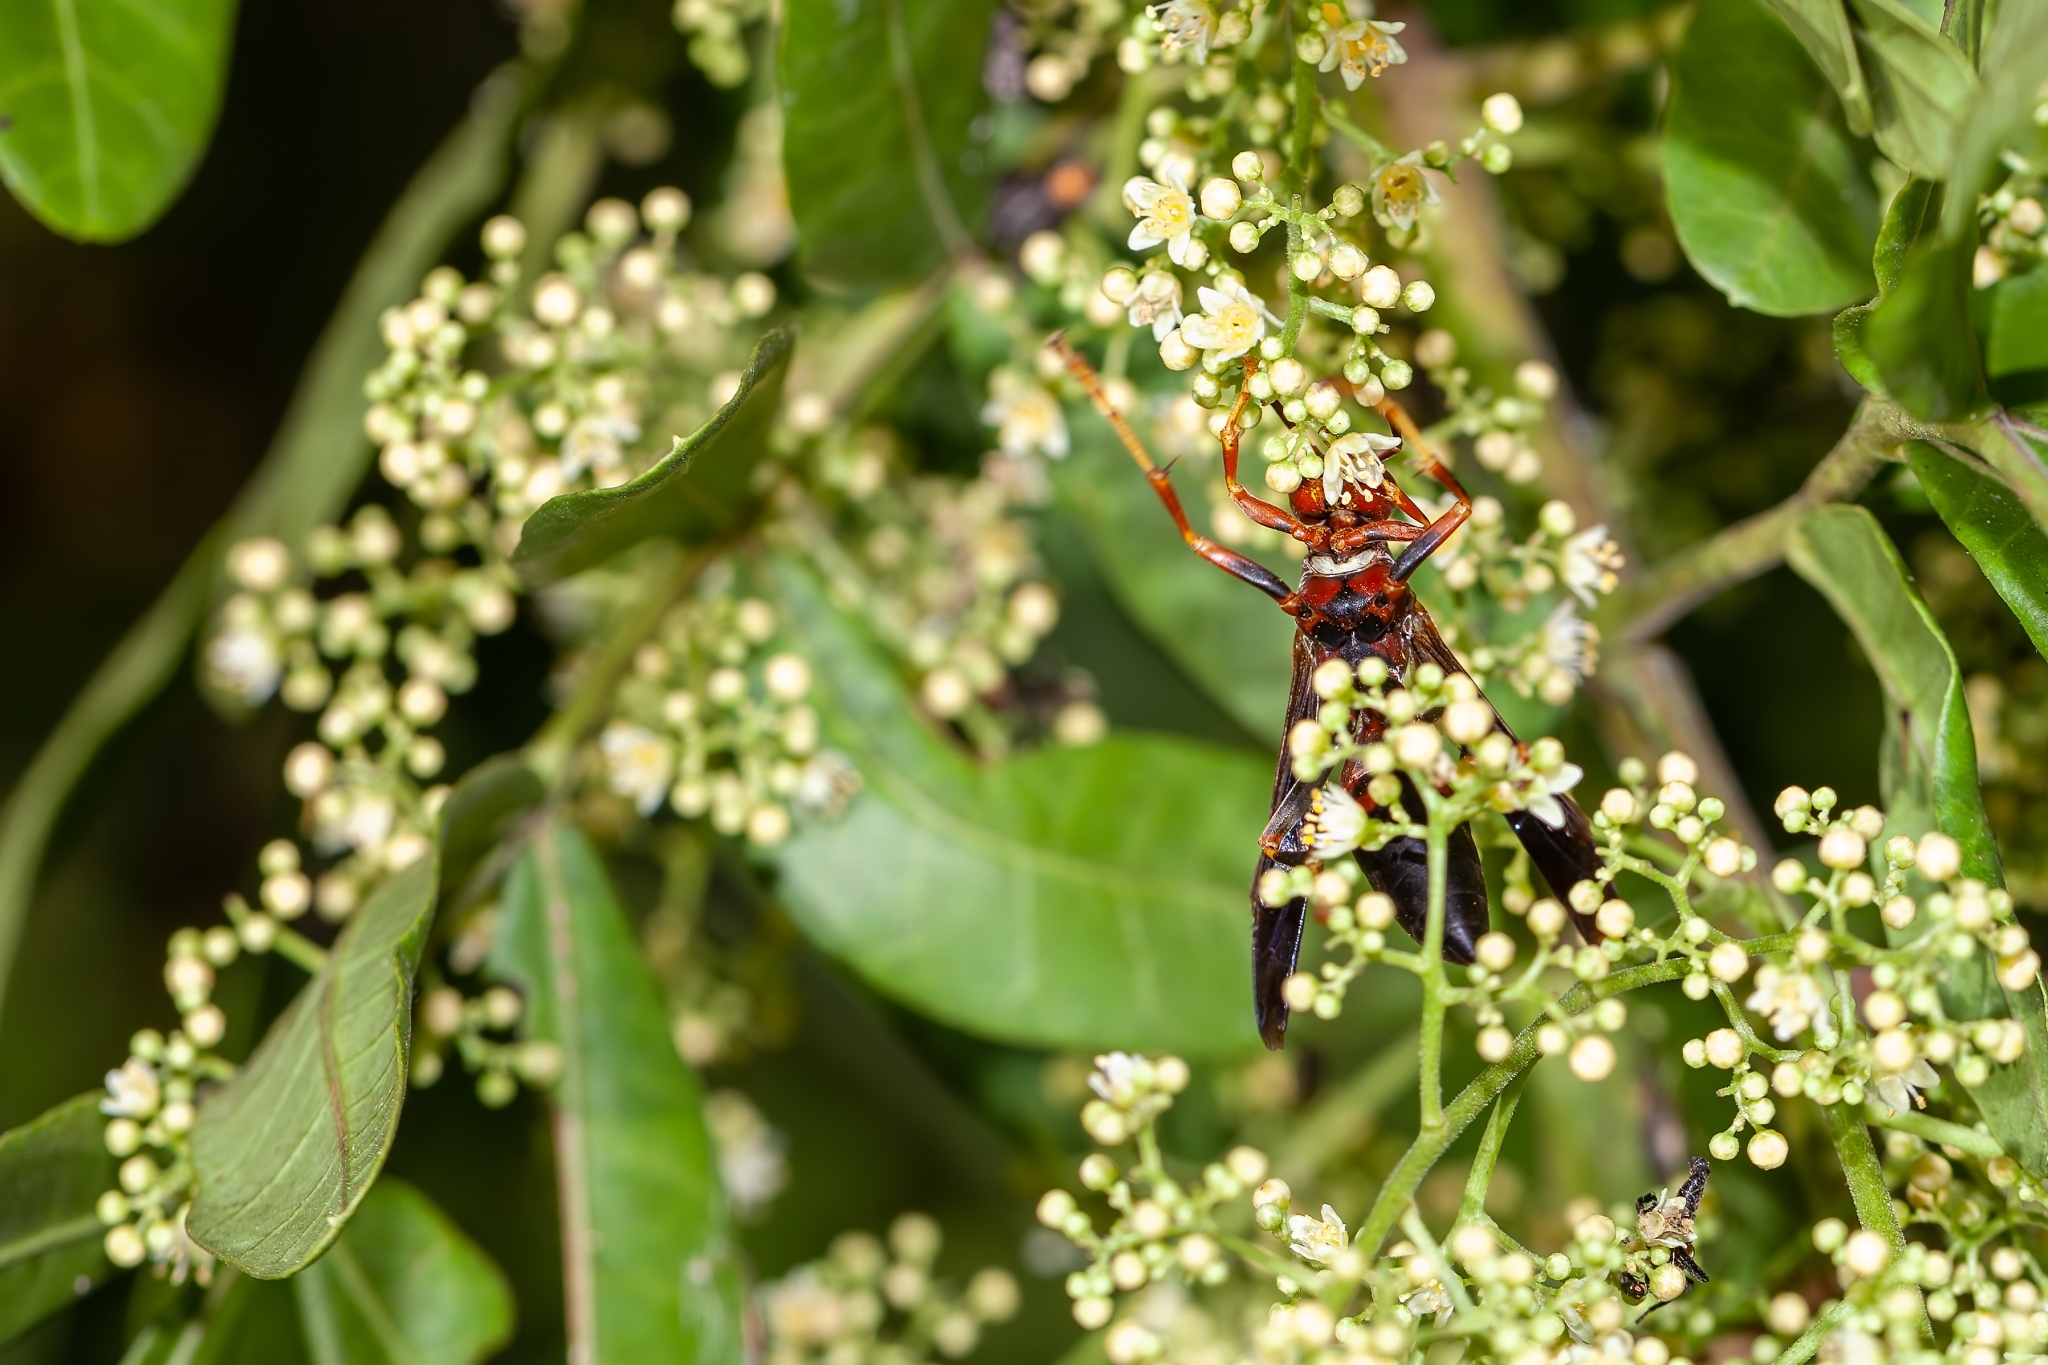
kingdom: Animalia
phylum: Arthropoda
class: Insecta
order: Hymenoptera
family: Eumenidae
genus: Polistes
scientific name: Polistes metricus
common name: Metric paper wasp
